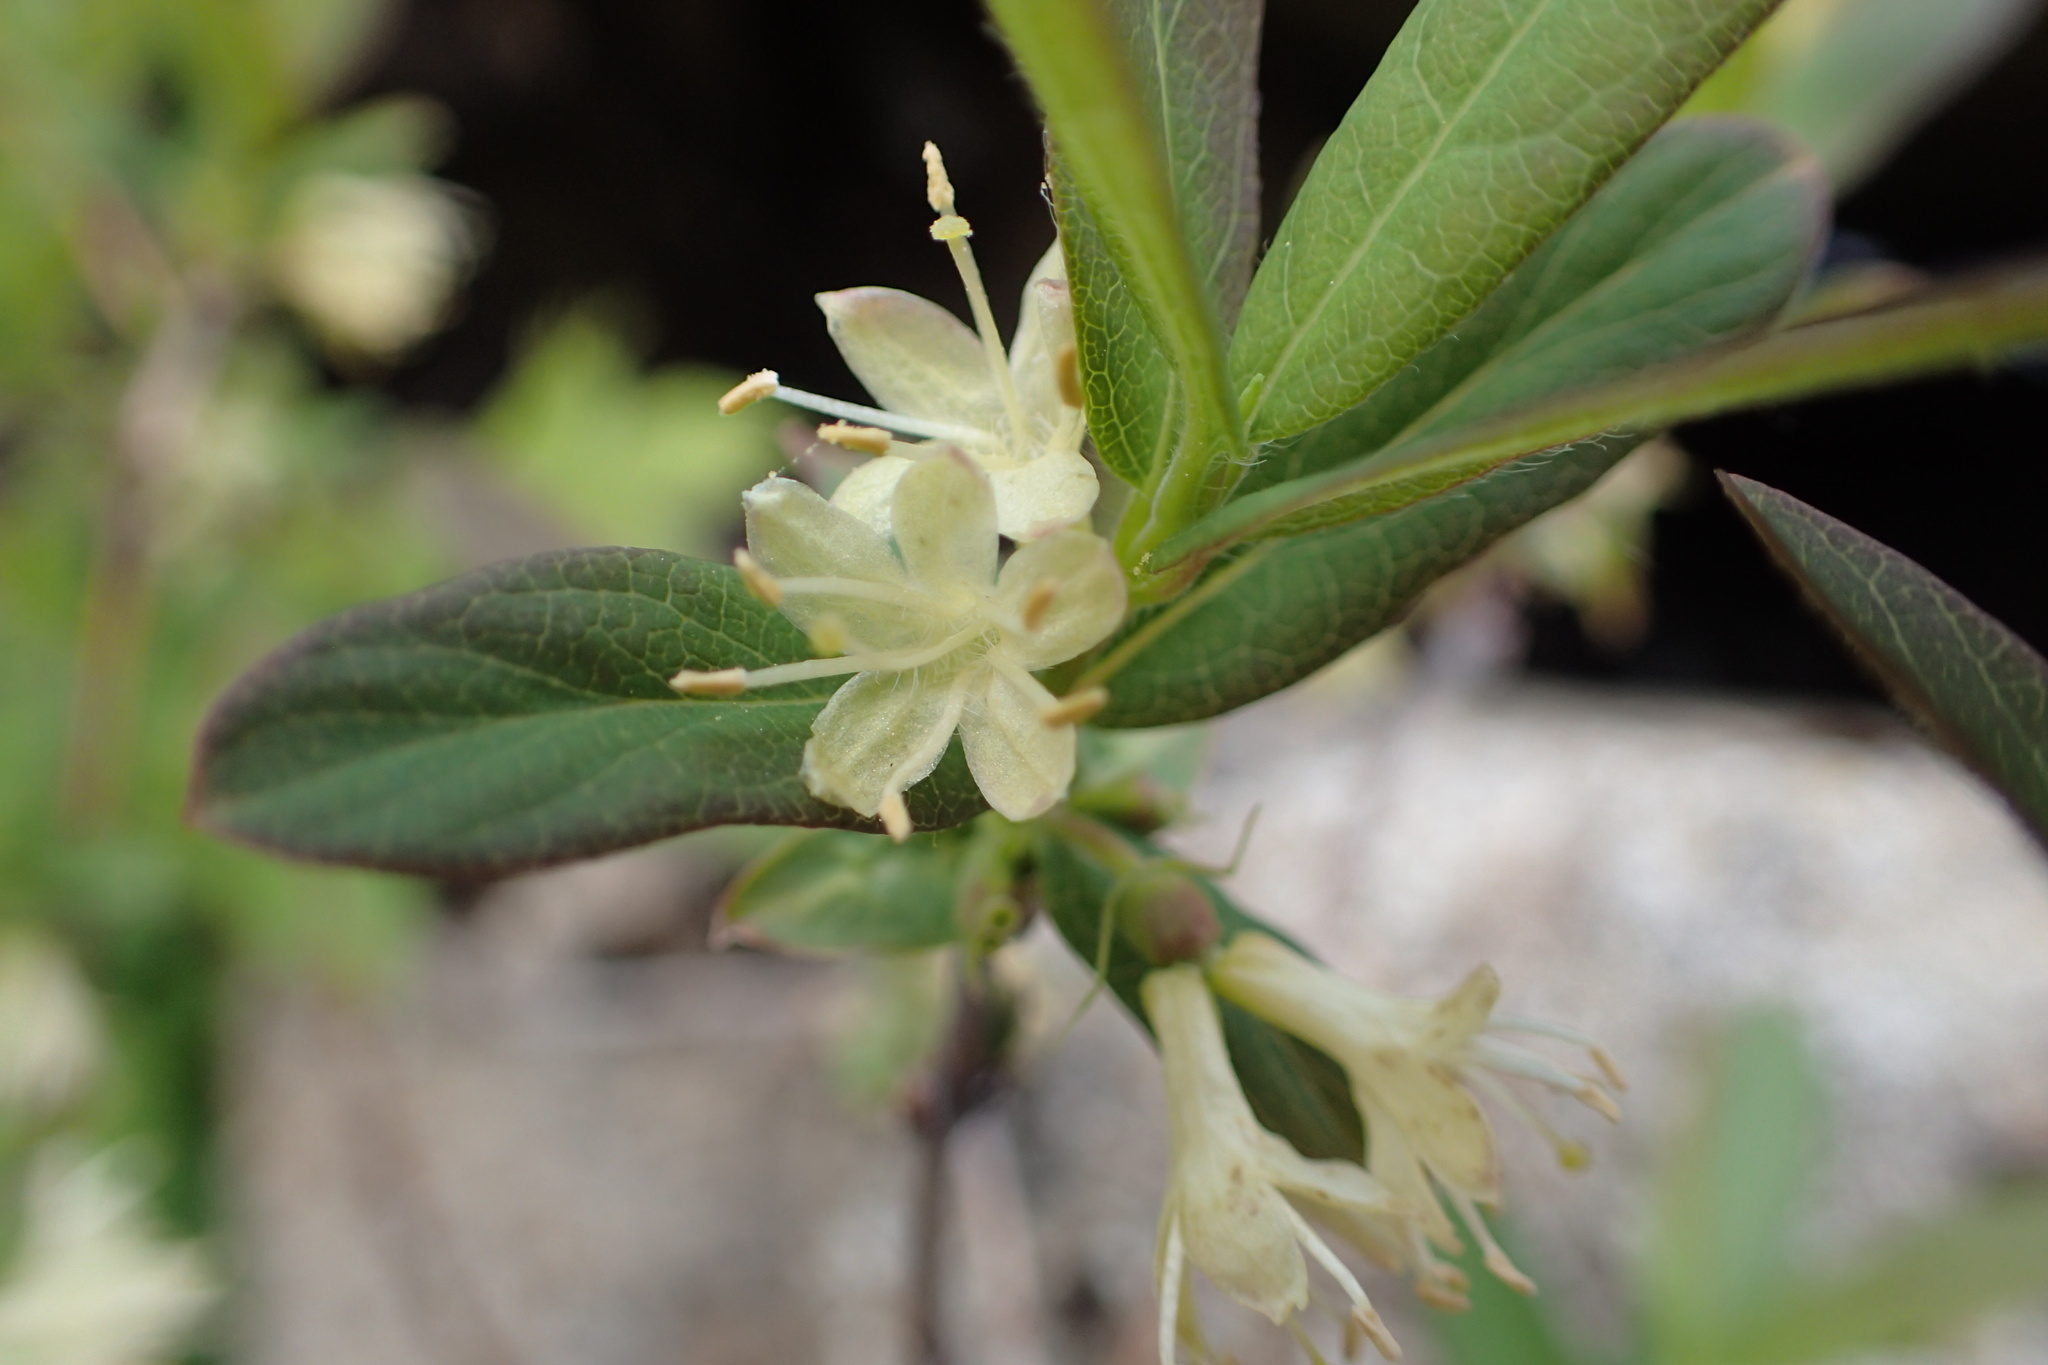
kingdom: Plantae
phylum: Tracheophyta
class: Magnoliopsida
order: Dipsacales
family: Caprifoliaceae
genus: Lonicera
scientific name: Lonicera villosa
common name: Mountain fly-honeysuckle
